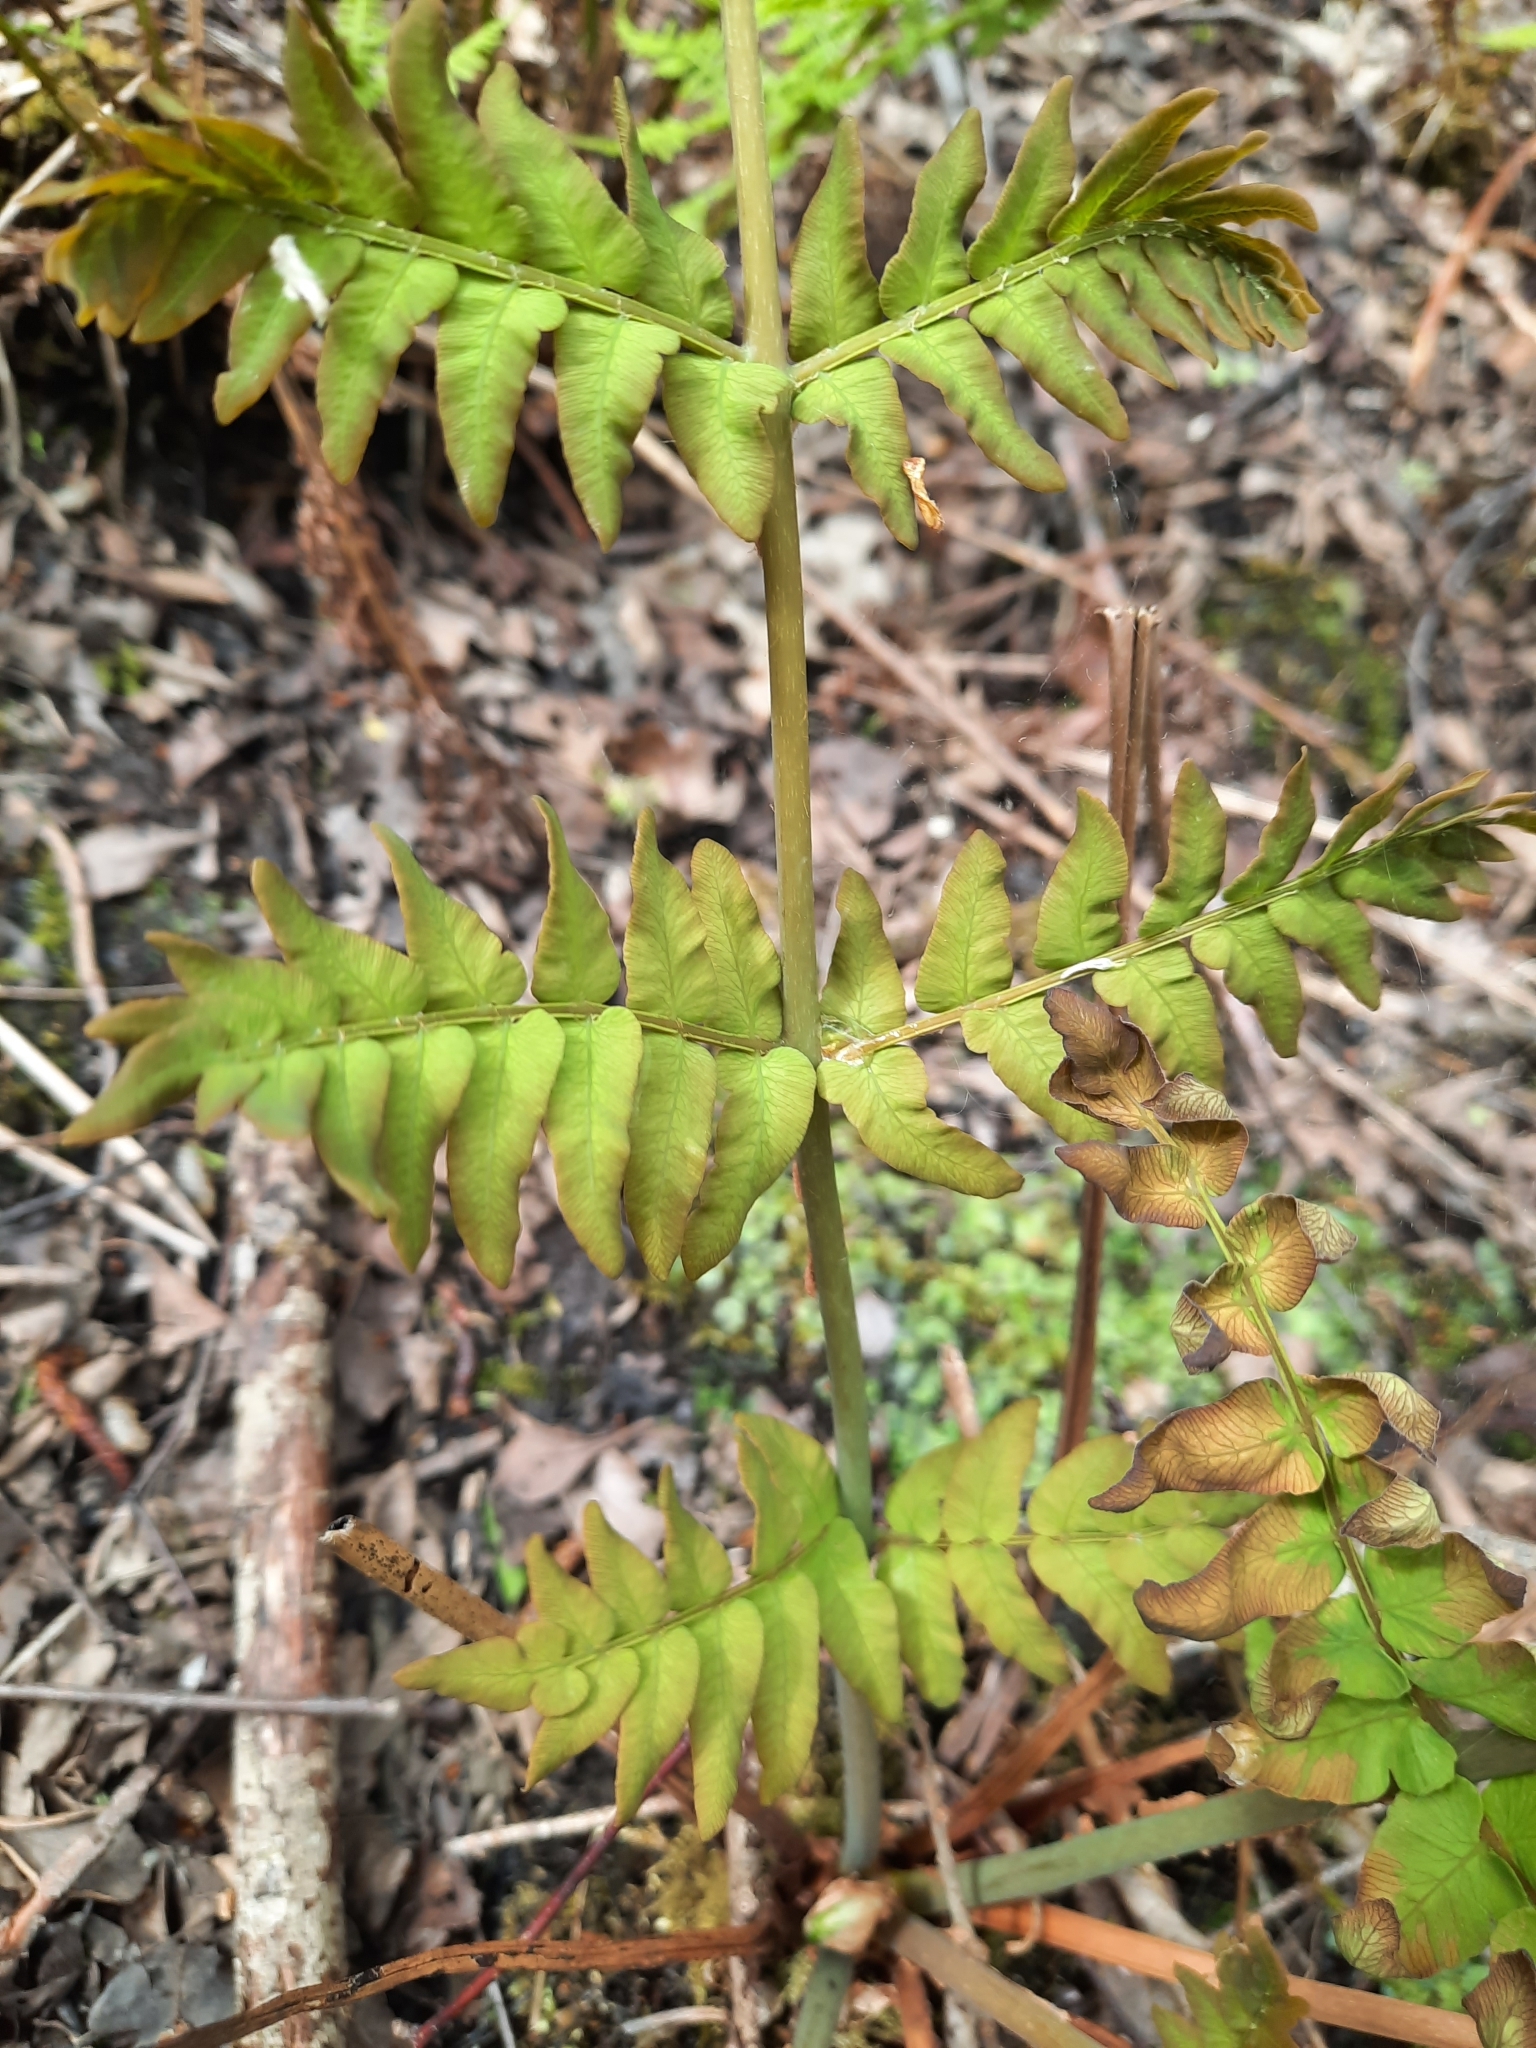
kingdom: Plantae
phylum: Tracheophyta
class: Polypodiopsida
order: Osmundales
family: Osmundaceae
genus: Osmunda
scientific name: Osmunda regalis
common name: Royal fern
